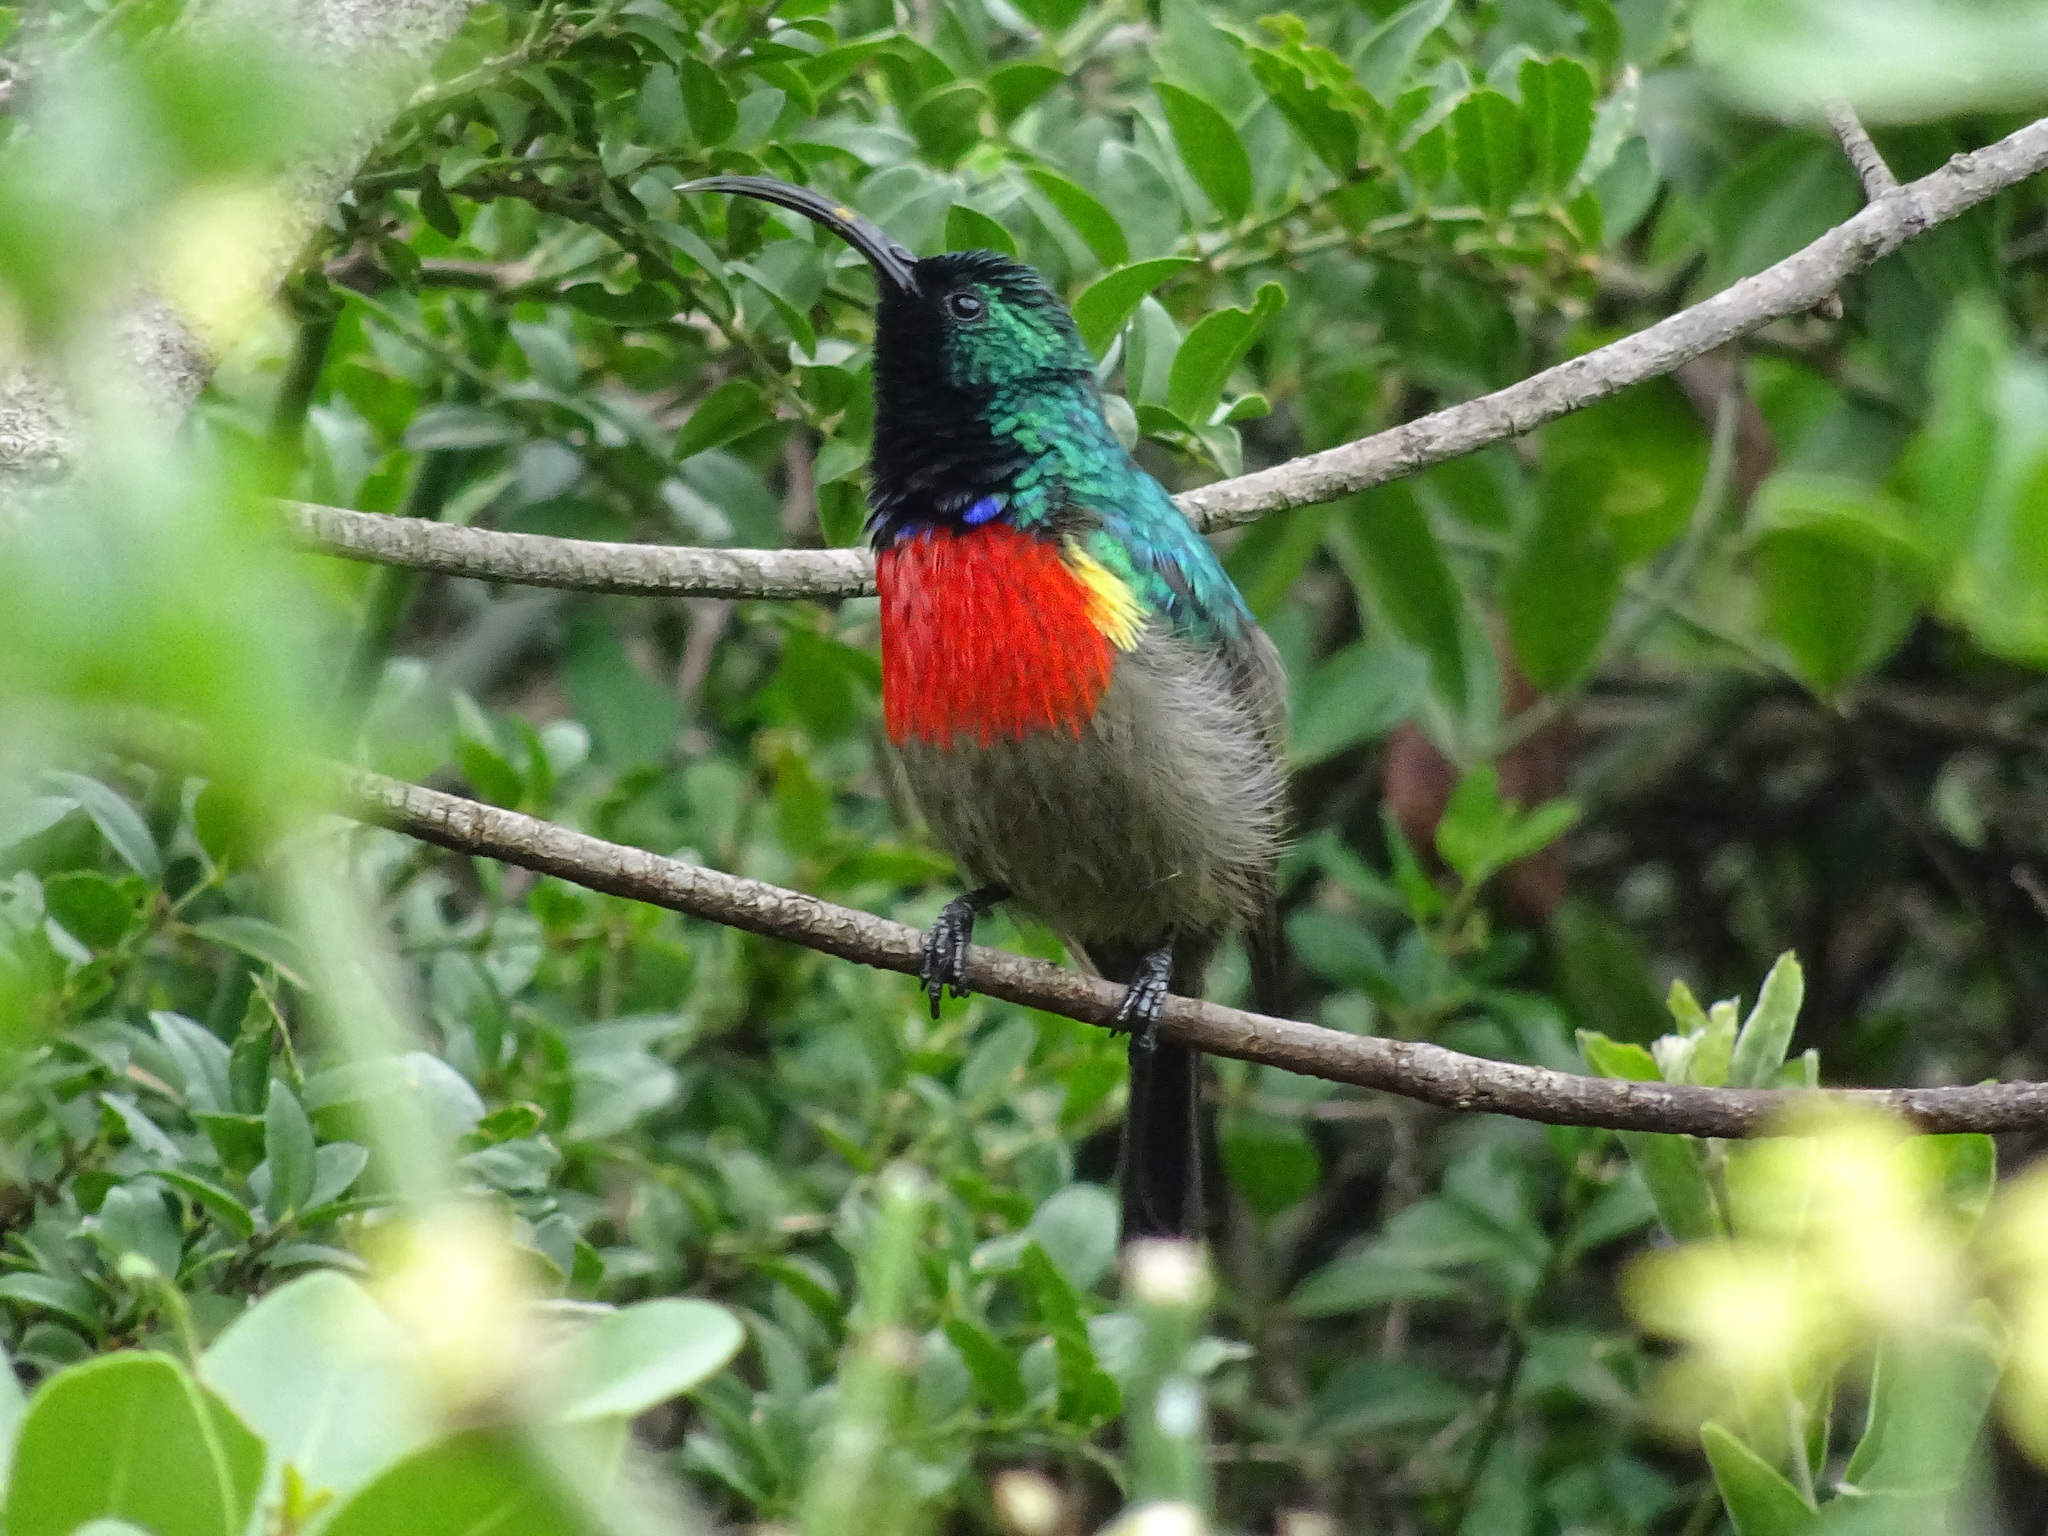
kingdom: Animalia
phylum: Chordata
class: Aves
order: Passeriformes
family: Nectariniidae
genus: Cinnyris
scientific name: Cinnyris afer
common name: Greater double-collared sunbird
